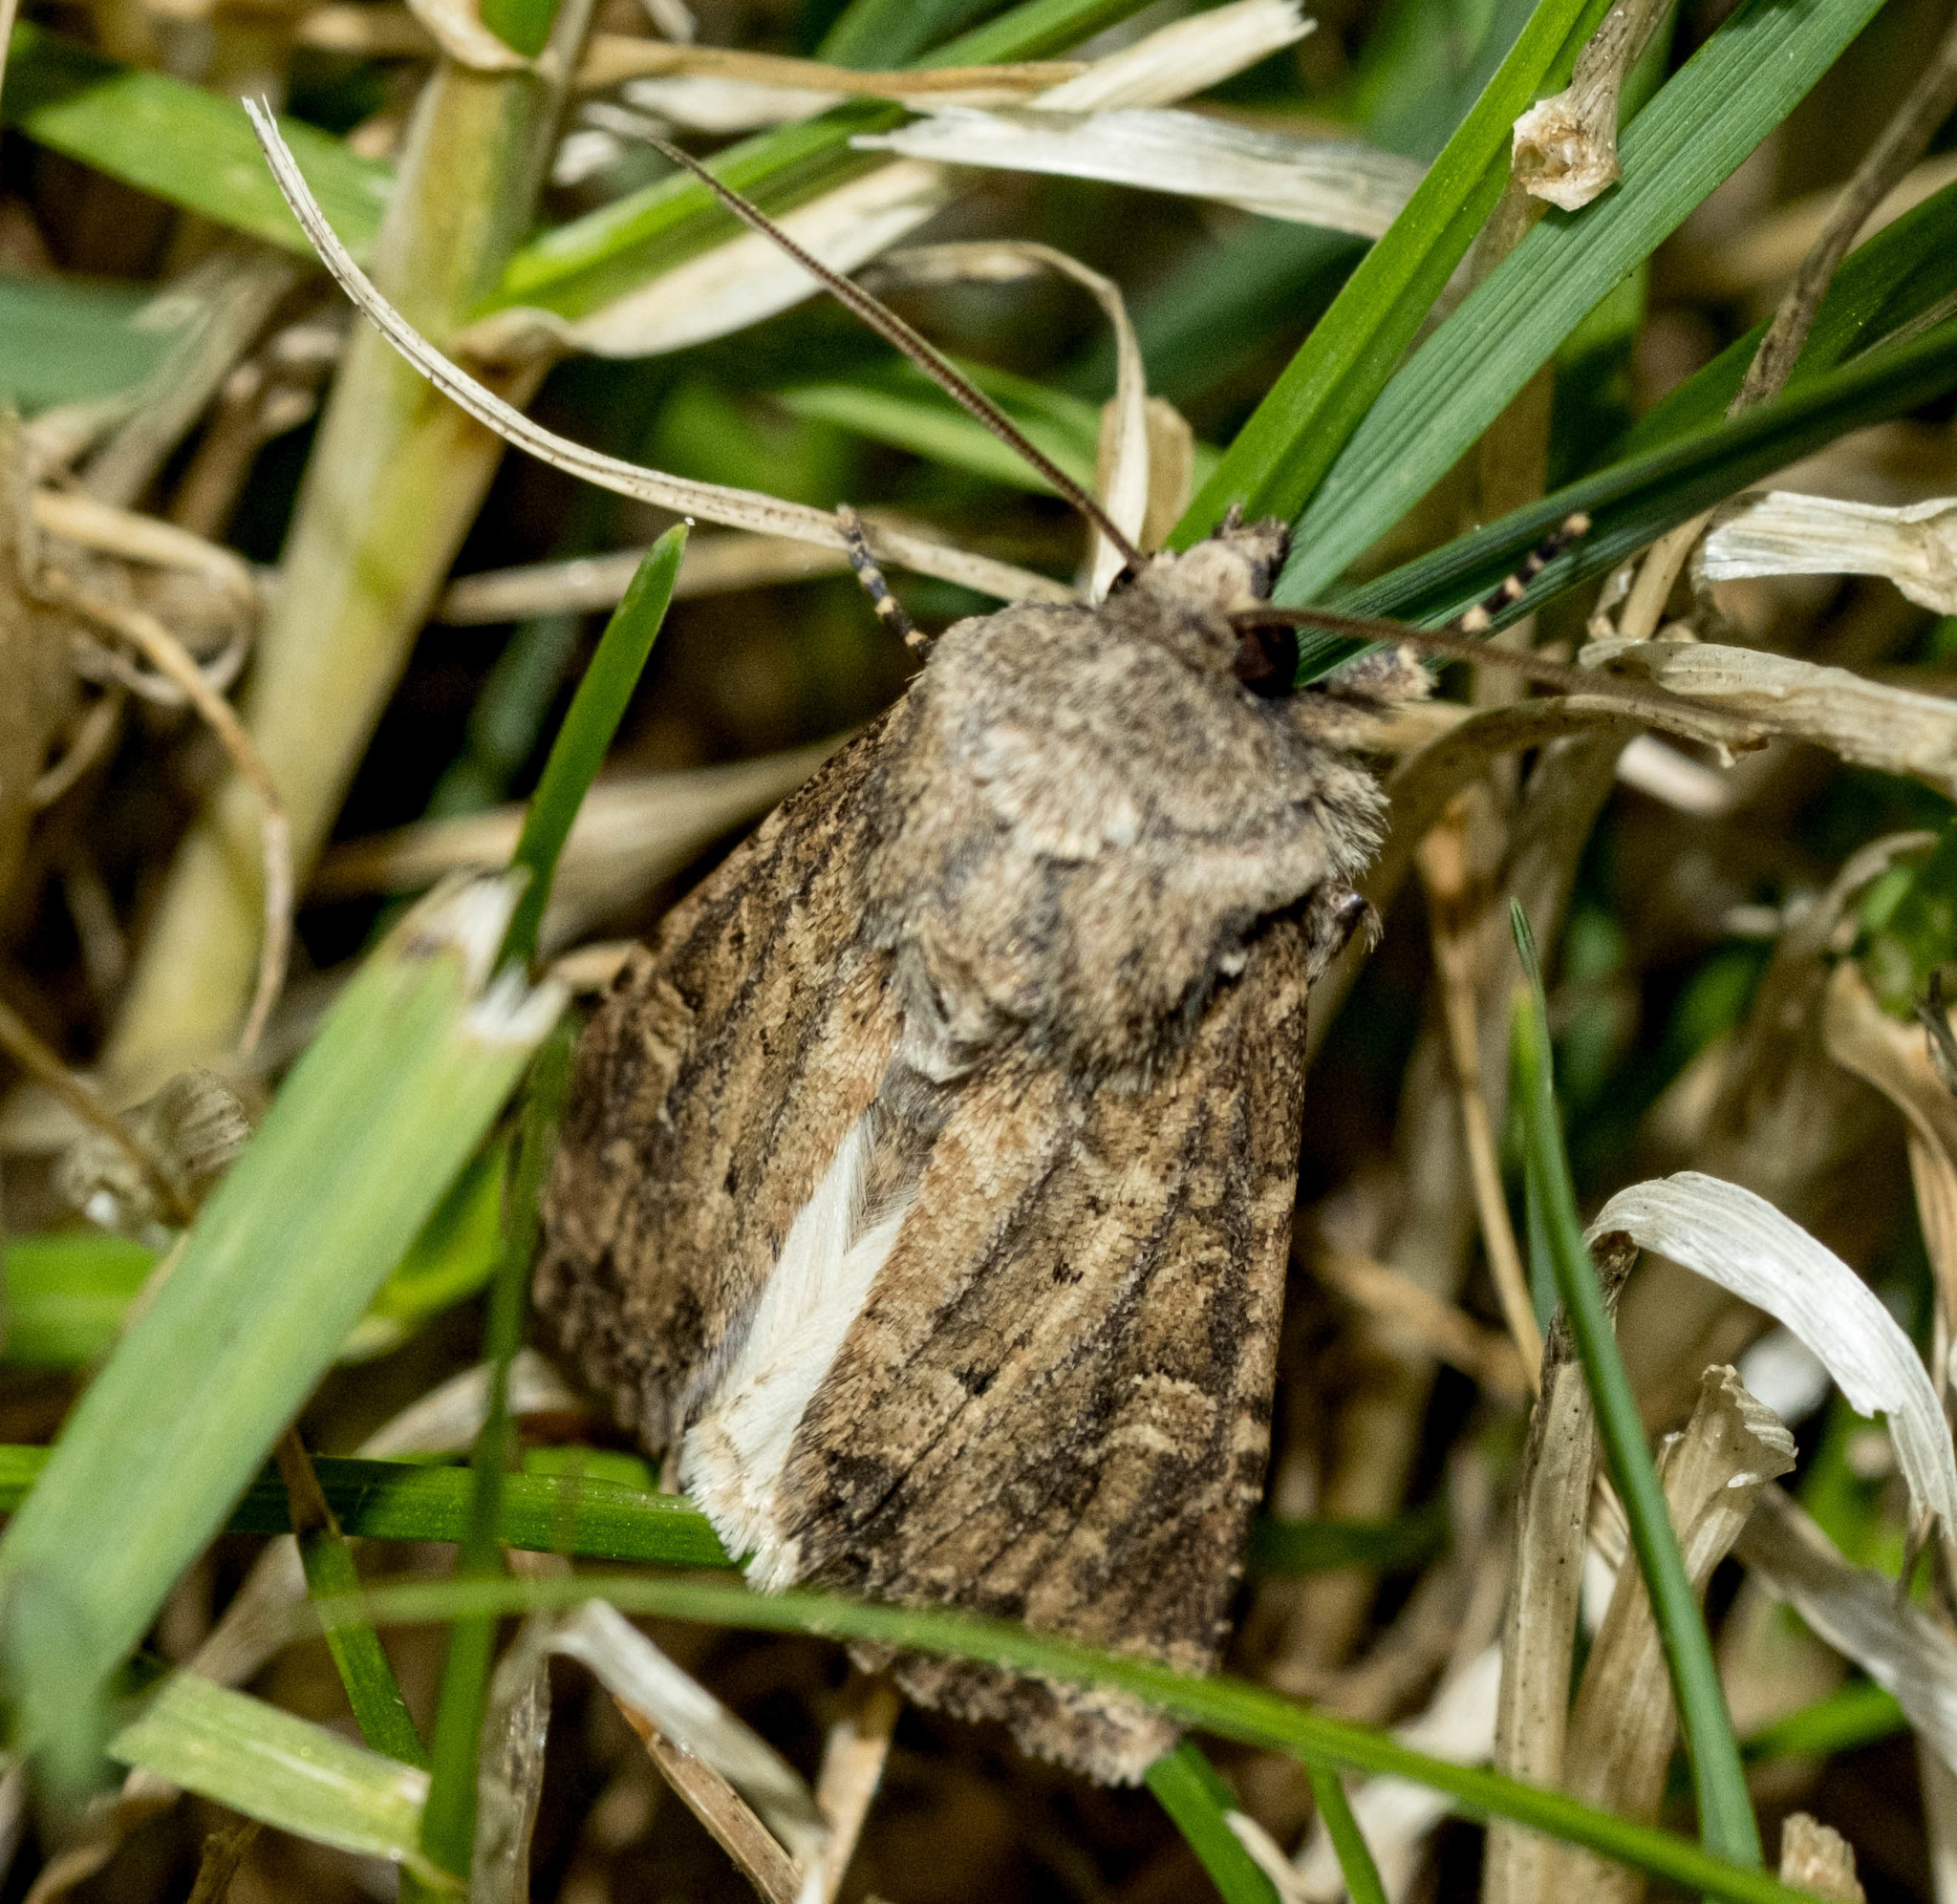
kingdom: Animalia
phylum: Arthropoda
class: Insecta
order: Lepidoptera
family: Noctuidae
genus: Luperina
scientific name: Luperina testacea
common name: Flounced rustic
